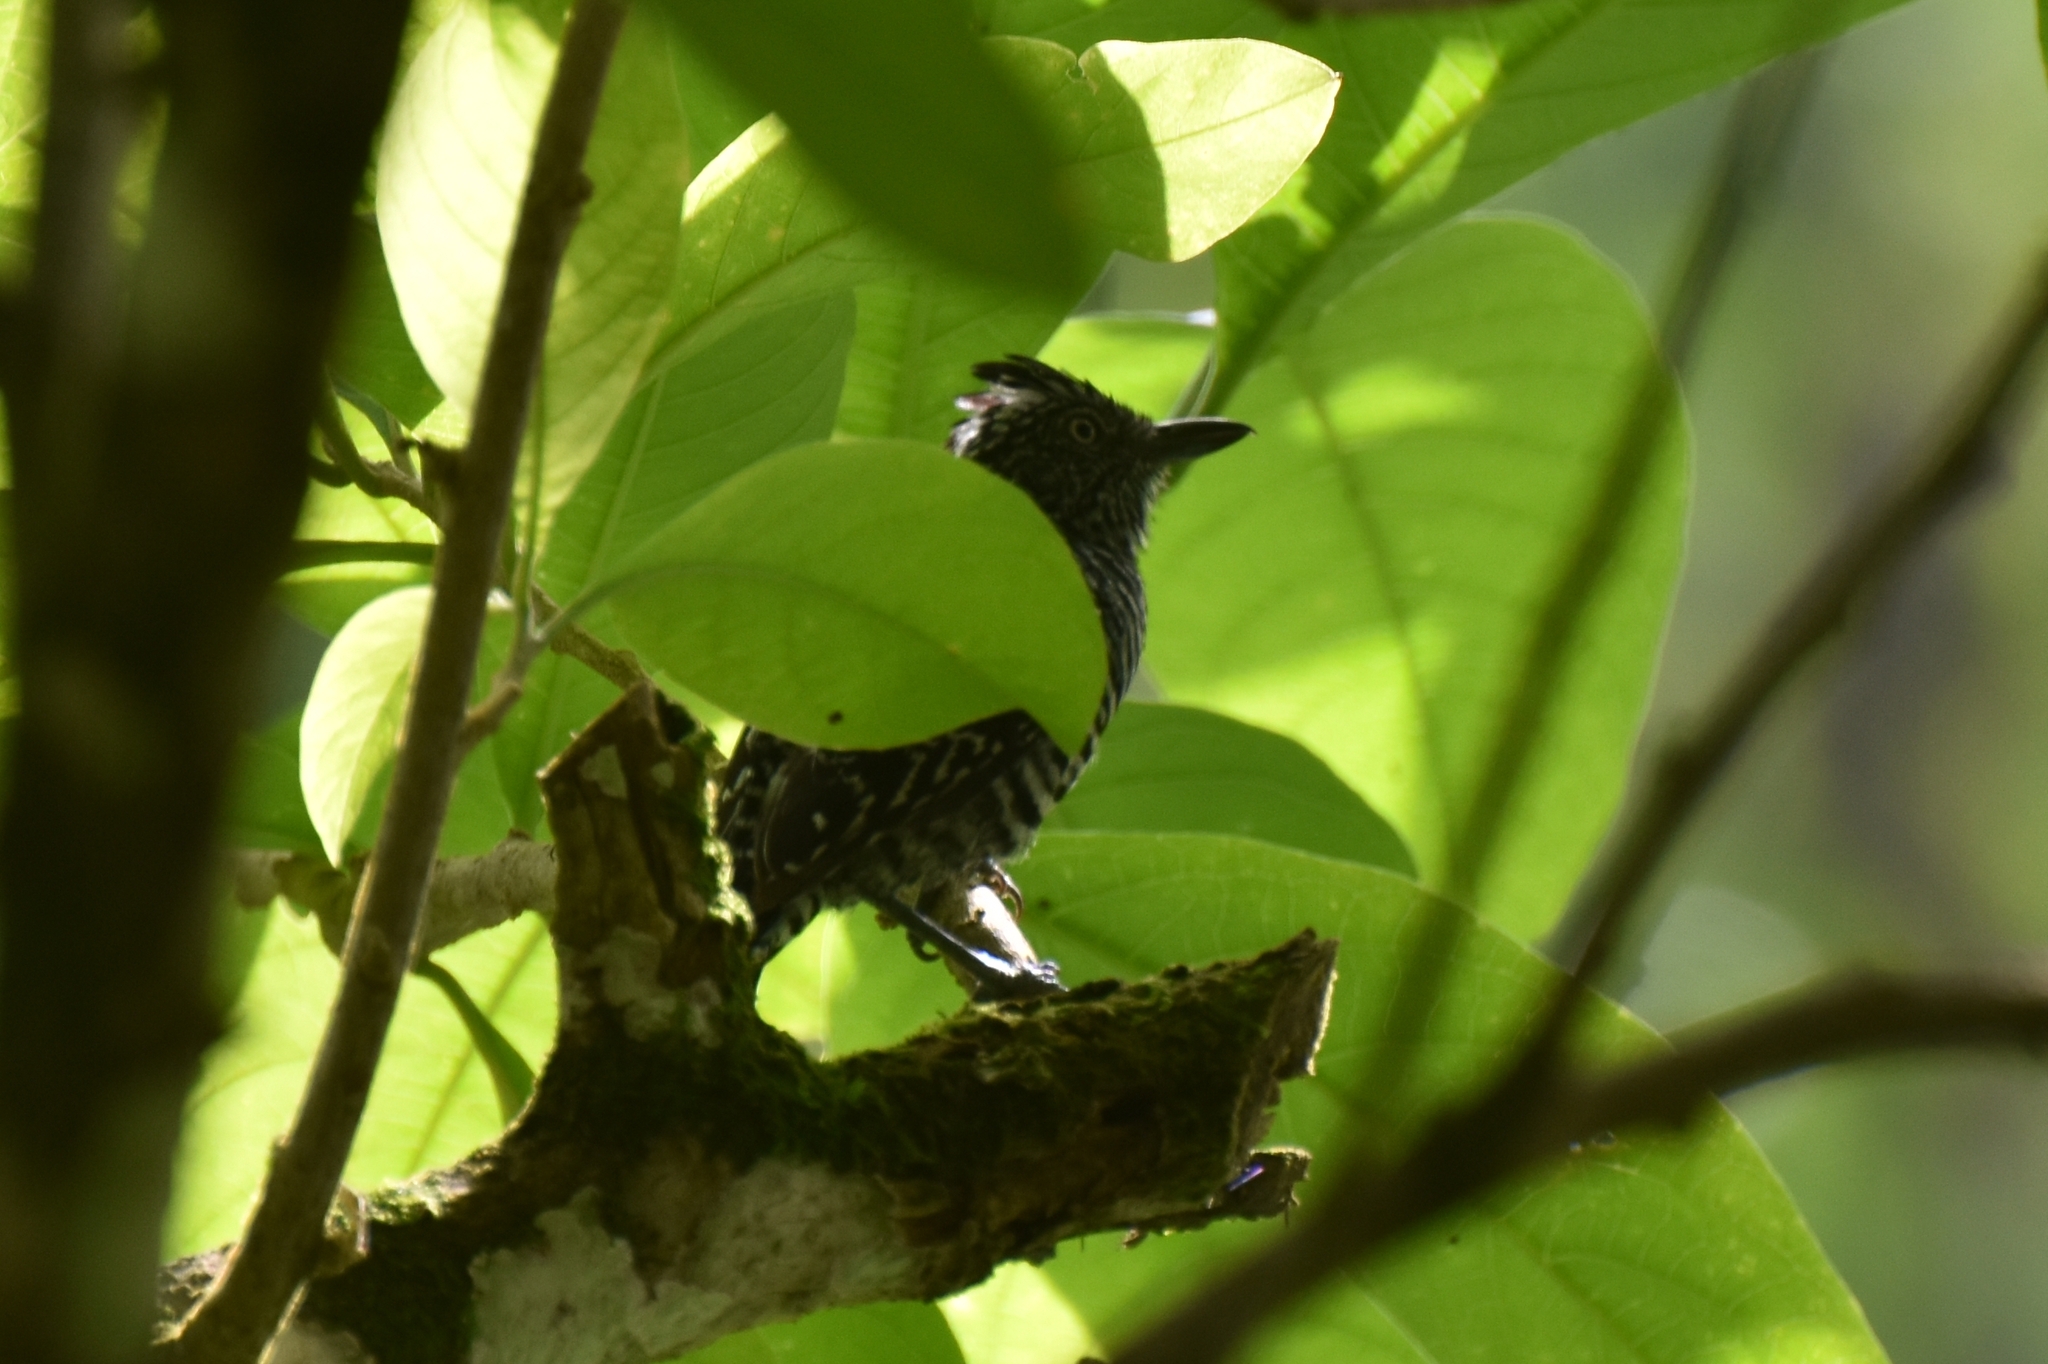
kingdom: Animalia
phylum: Chordata
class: Aves
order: Passeriformes
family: Thamnophilidae
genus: Thamnophilus
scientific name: Thamnophilus doliatus
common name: Barred antshrike
